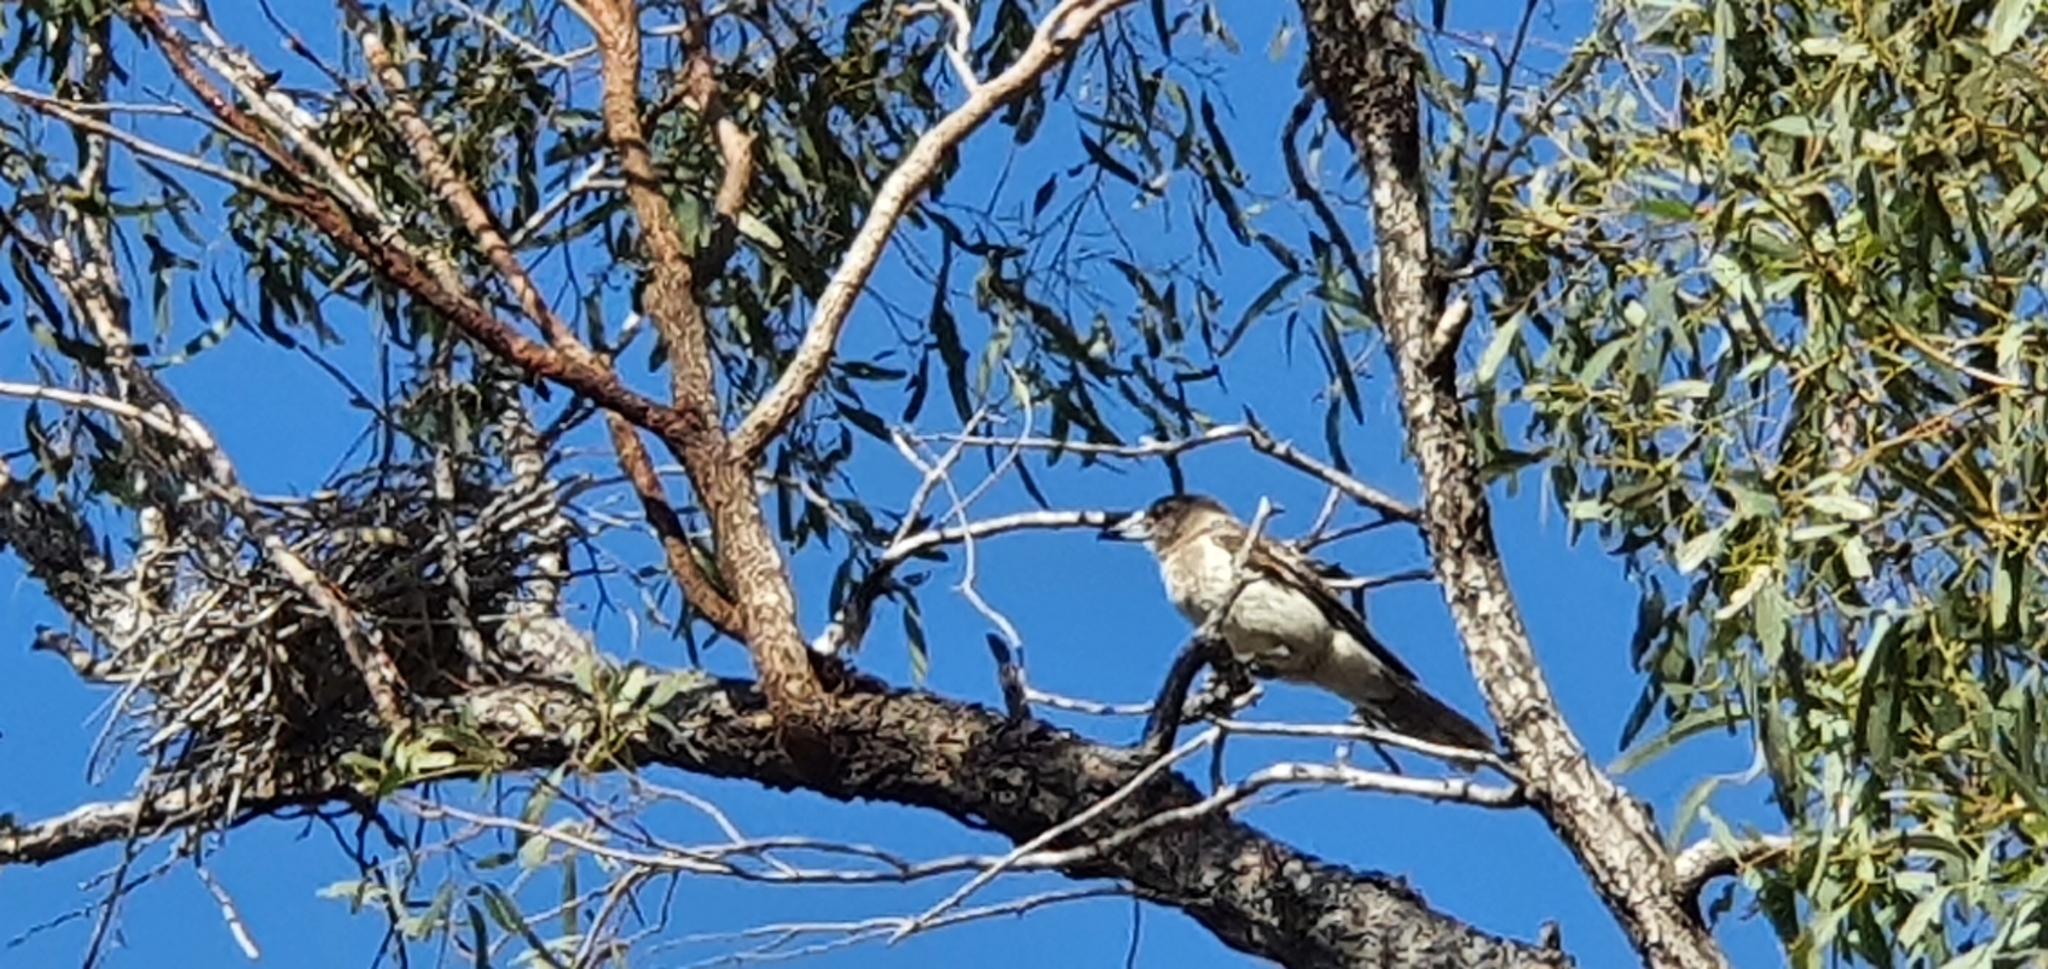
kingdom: Animalia
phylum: Chordata
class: Aves
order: Passeriformes
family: Cracticidae
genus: Cracticus
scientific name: Cracticus nigrogularis
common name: Pied butcherbird
